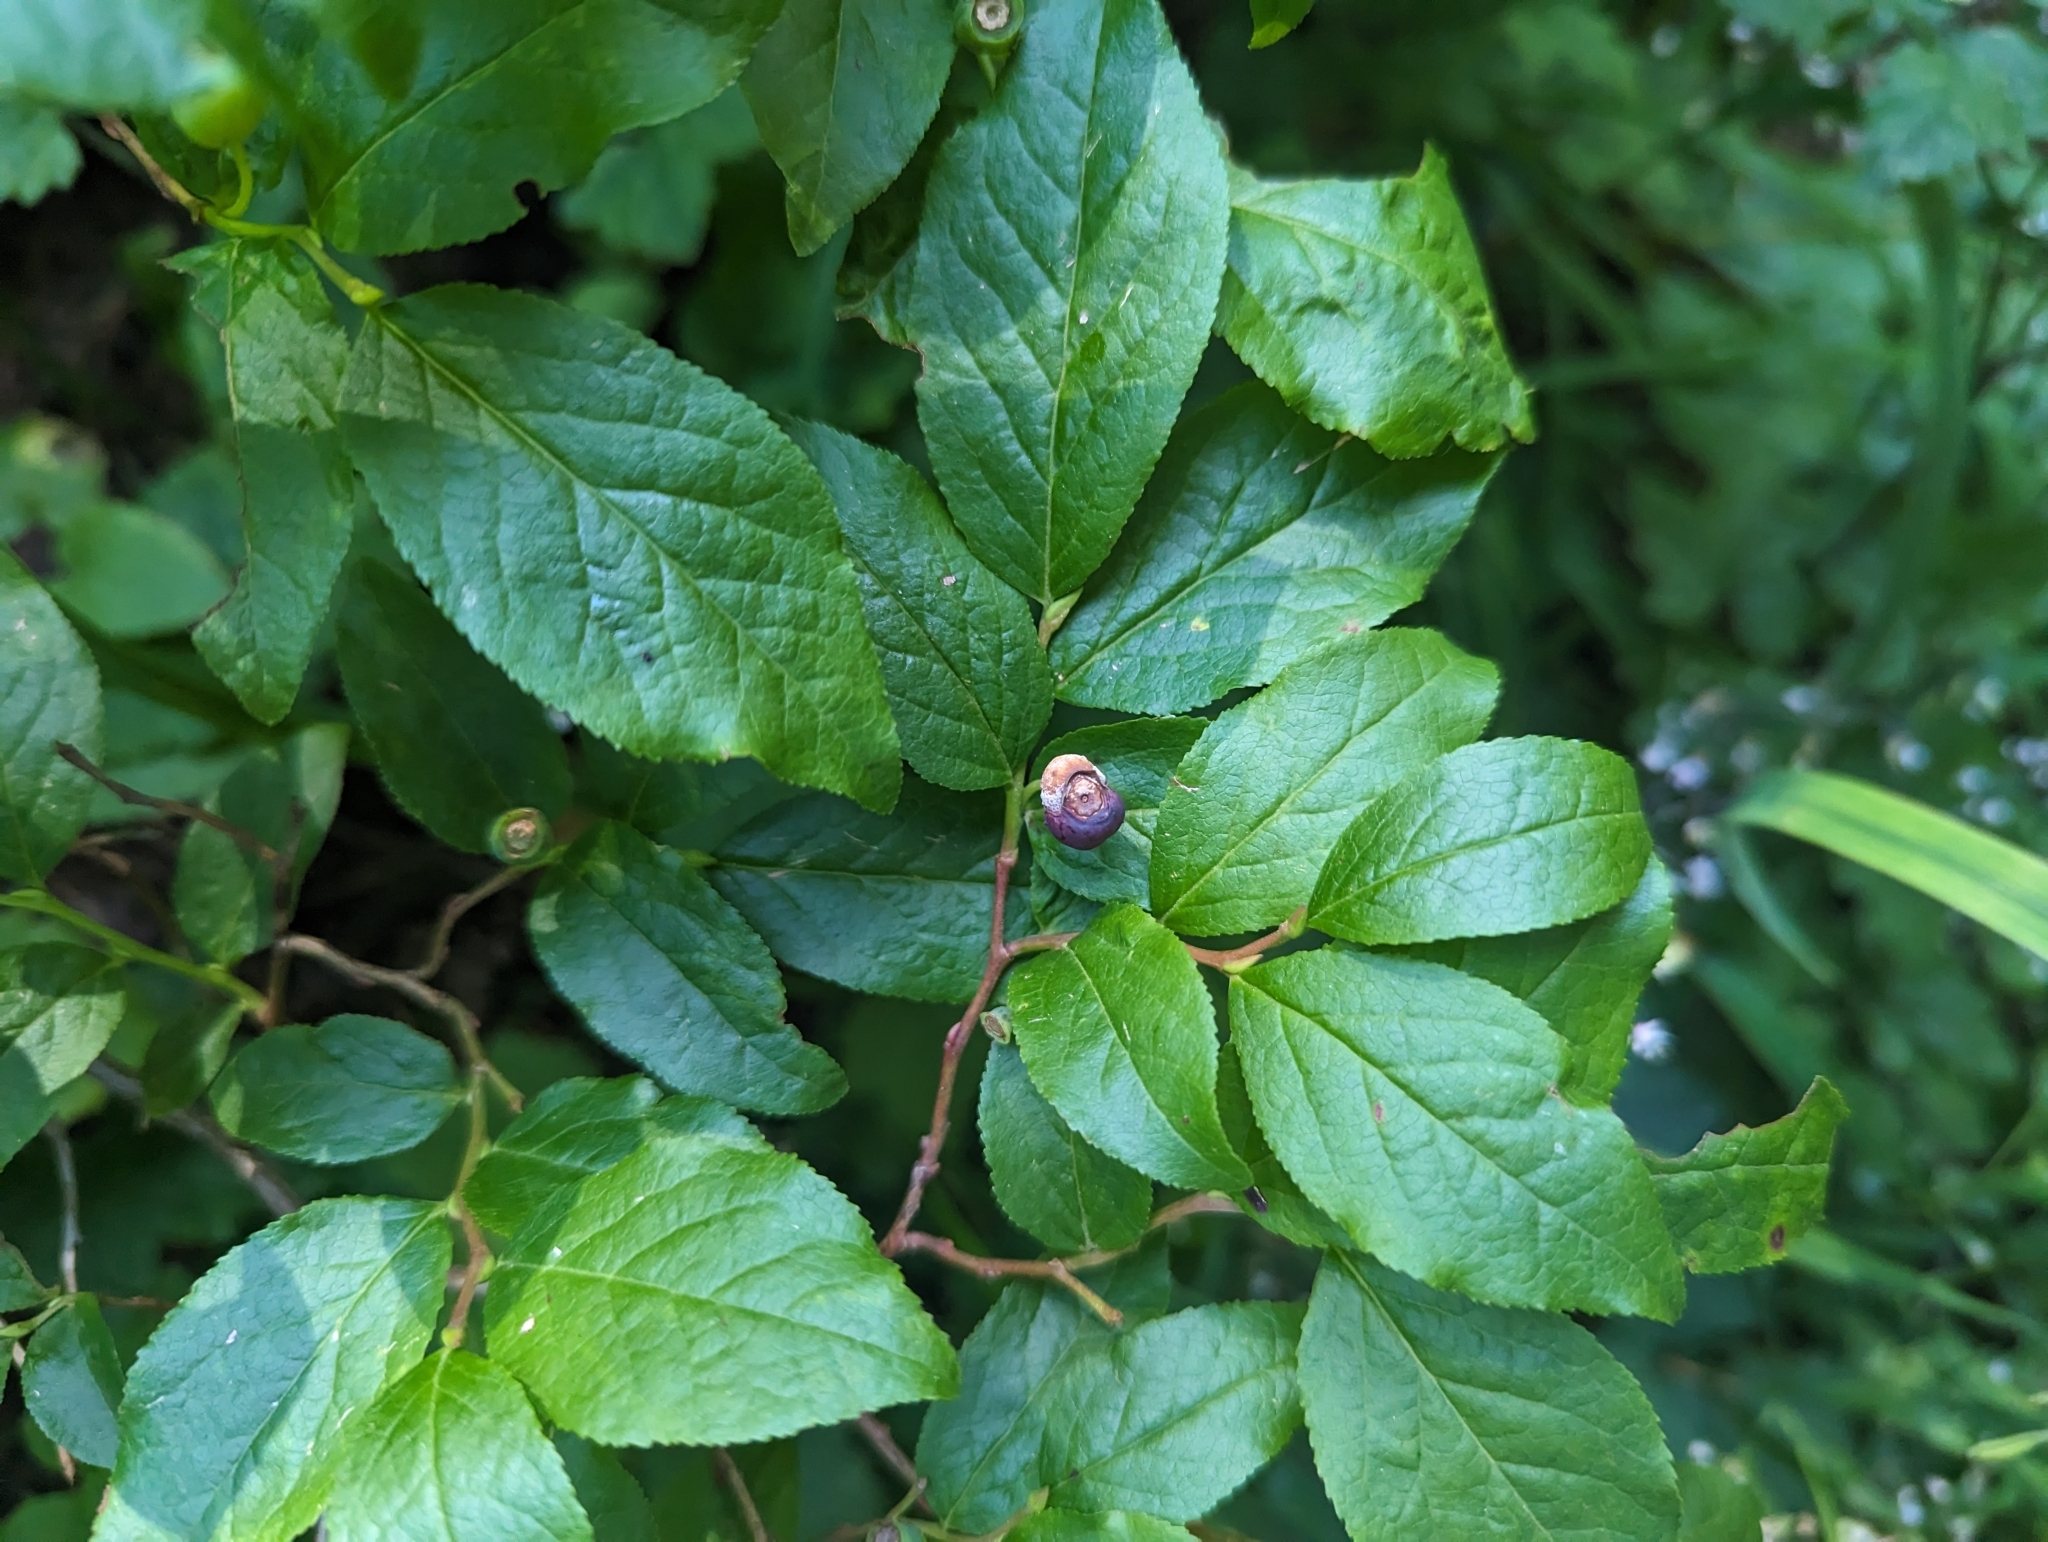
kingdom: Plantae
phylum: Tracheophyta
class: Magnoliopsida
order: Ericales
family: Ericaceae
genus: Vaccinium
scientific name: Vaccinium membranaceum
